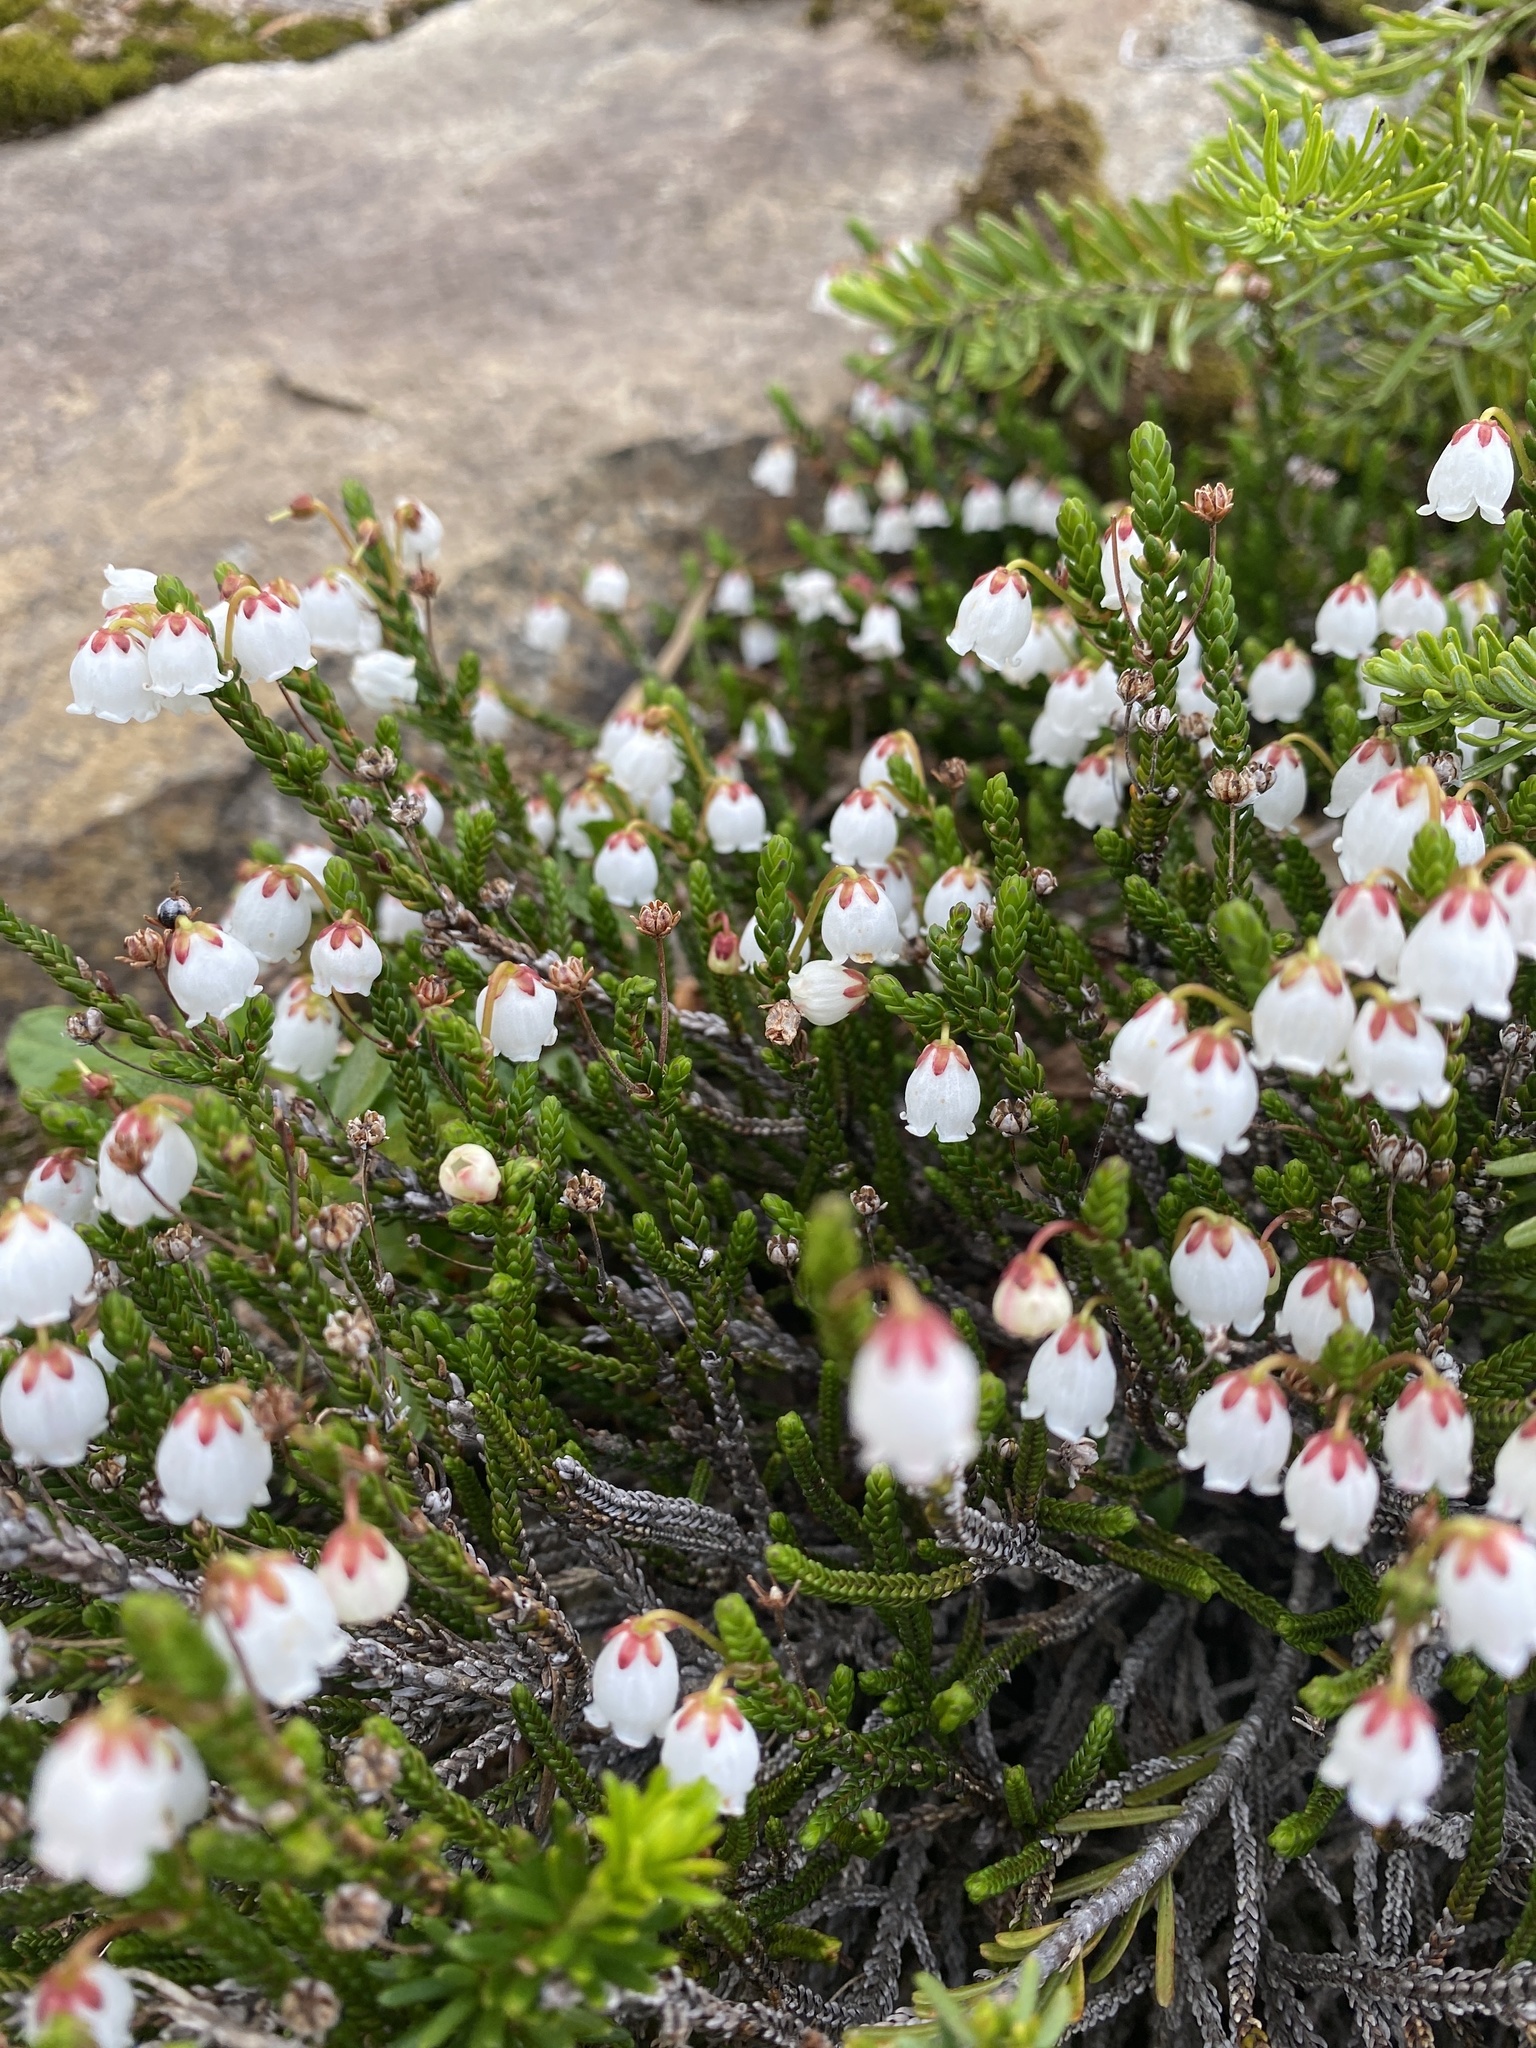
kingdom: Plantae
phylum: Tracheophyta
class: Magnoliopsida
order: Ericales
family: Ericaceae
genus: Cassiope
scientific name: Cassiope mertensiana
